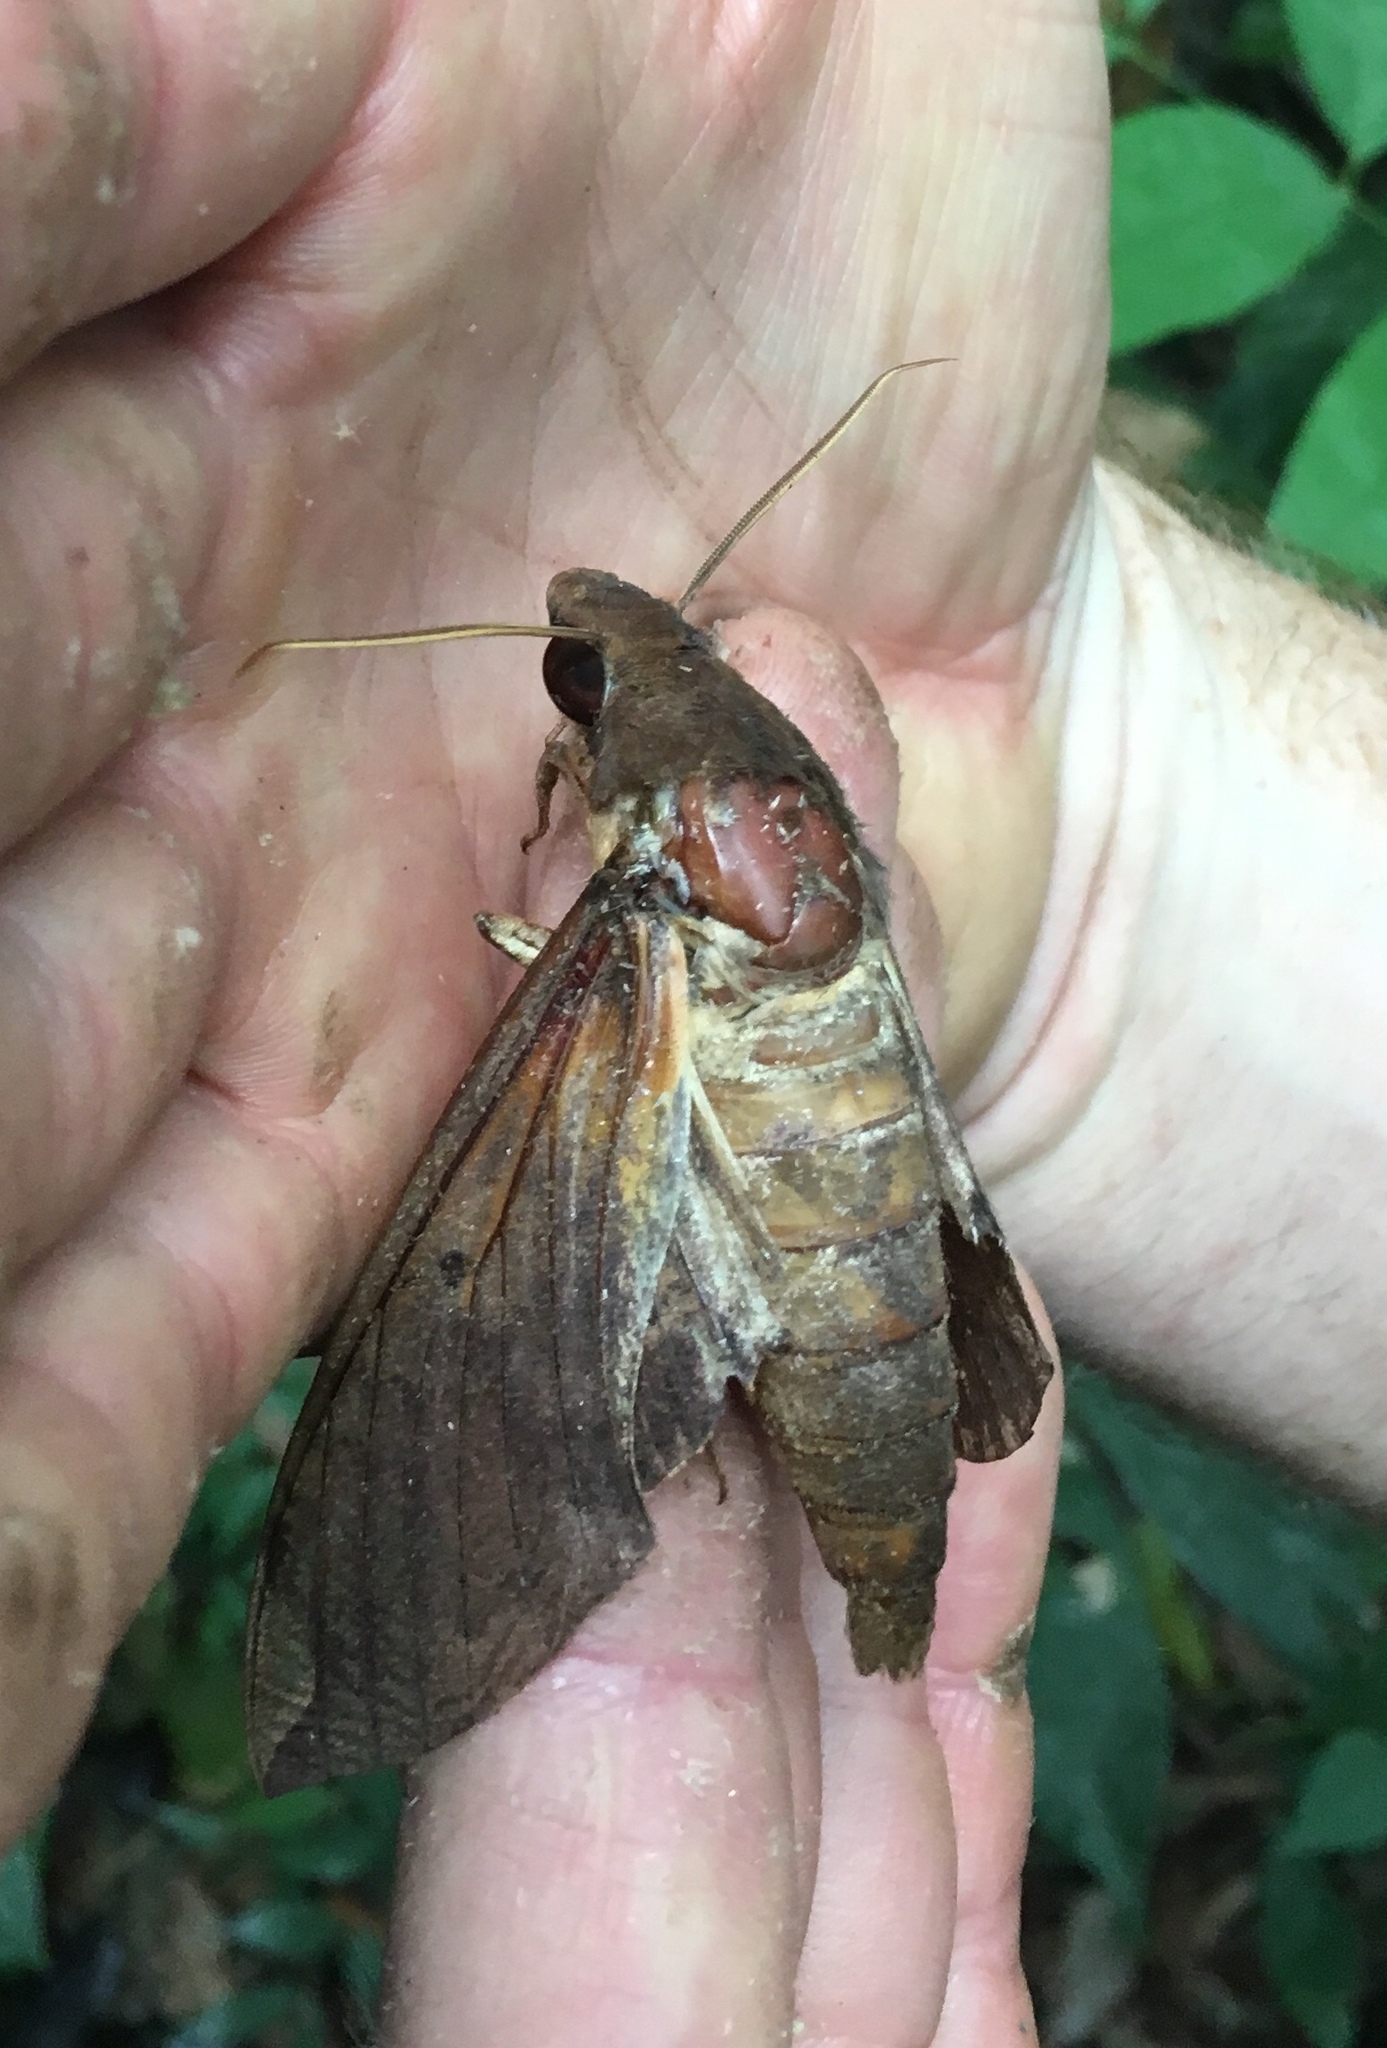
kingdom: Animalia
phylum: Arthropoda
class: Insecta
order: Lepidoptera
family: Sphingidae
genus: Pachylia
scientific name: Pachylia ficus
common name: Fig sphinx
